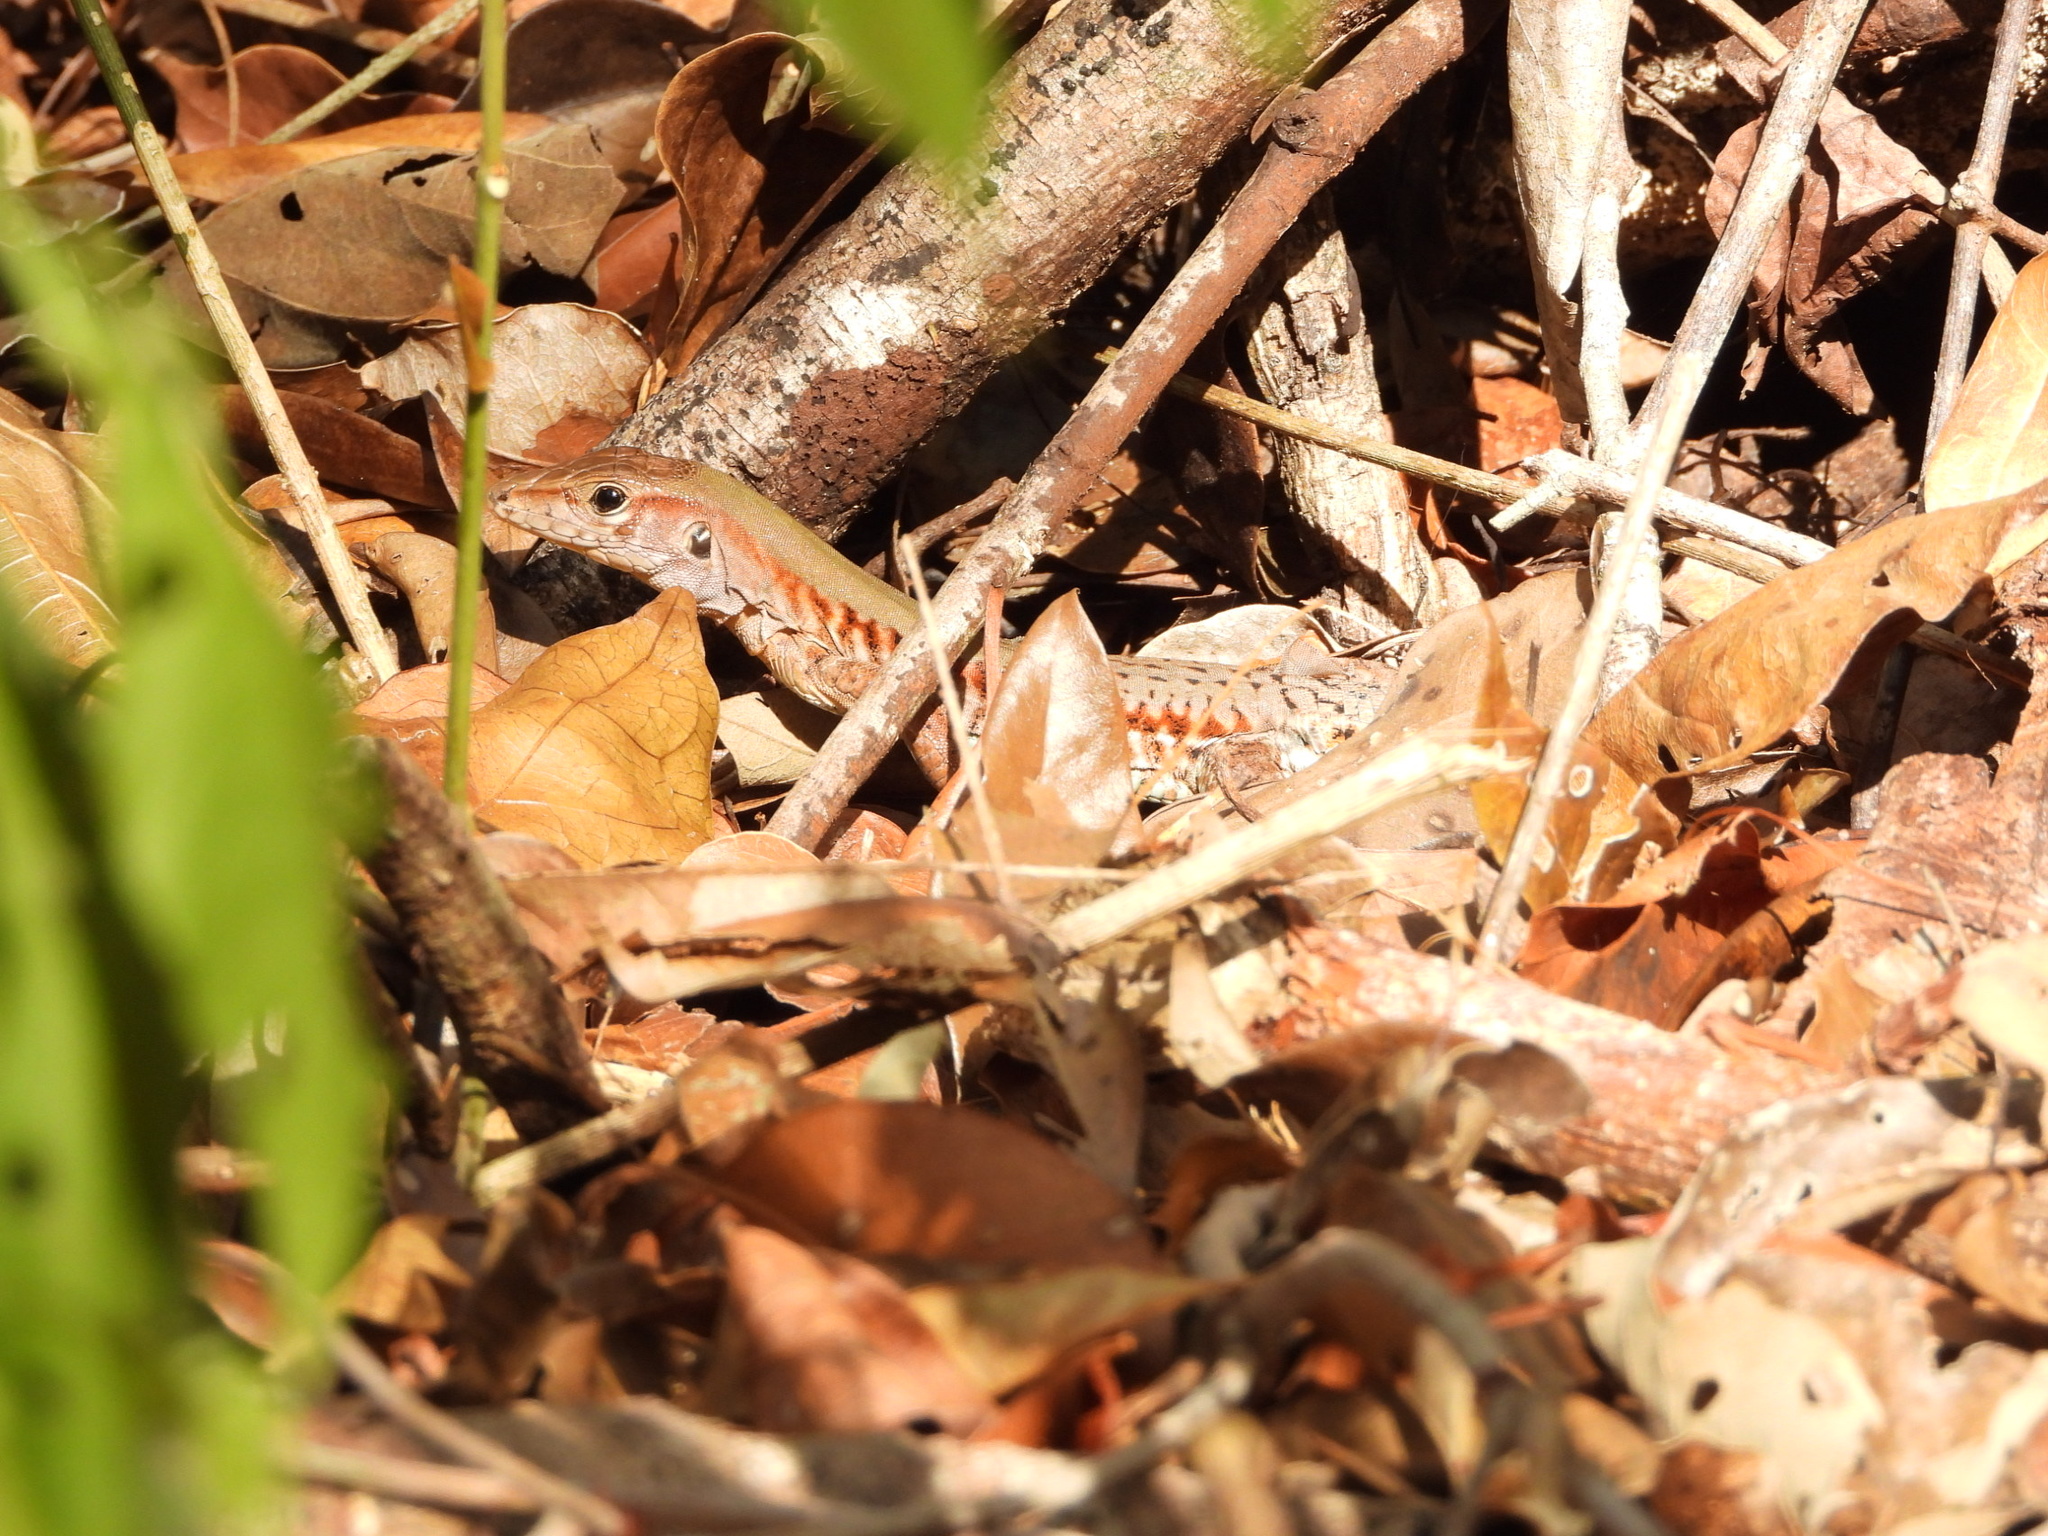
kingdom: Animalia
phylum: Chordata
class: Squamata
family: Teiidae
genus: Holcosus
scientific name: Holcosus gaigeae
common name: Rainbow ameiva
